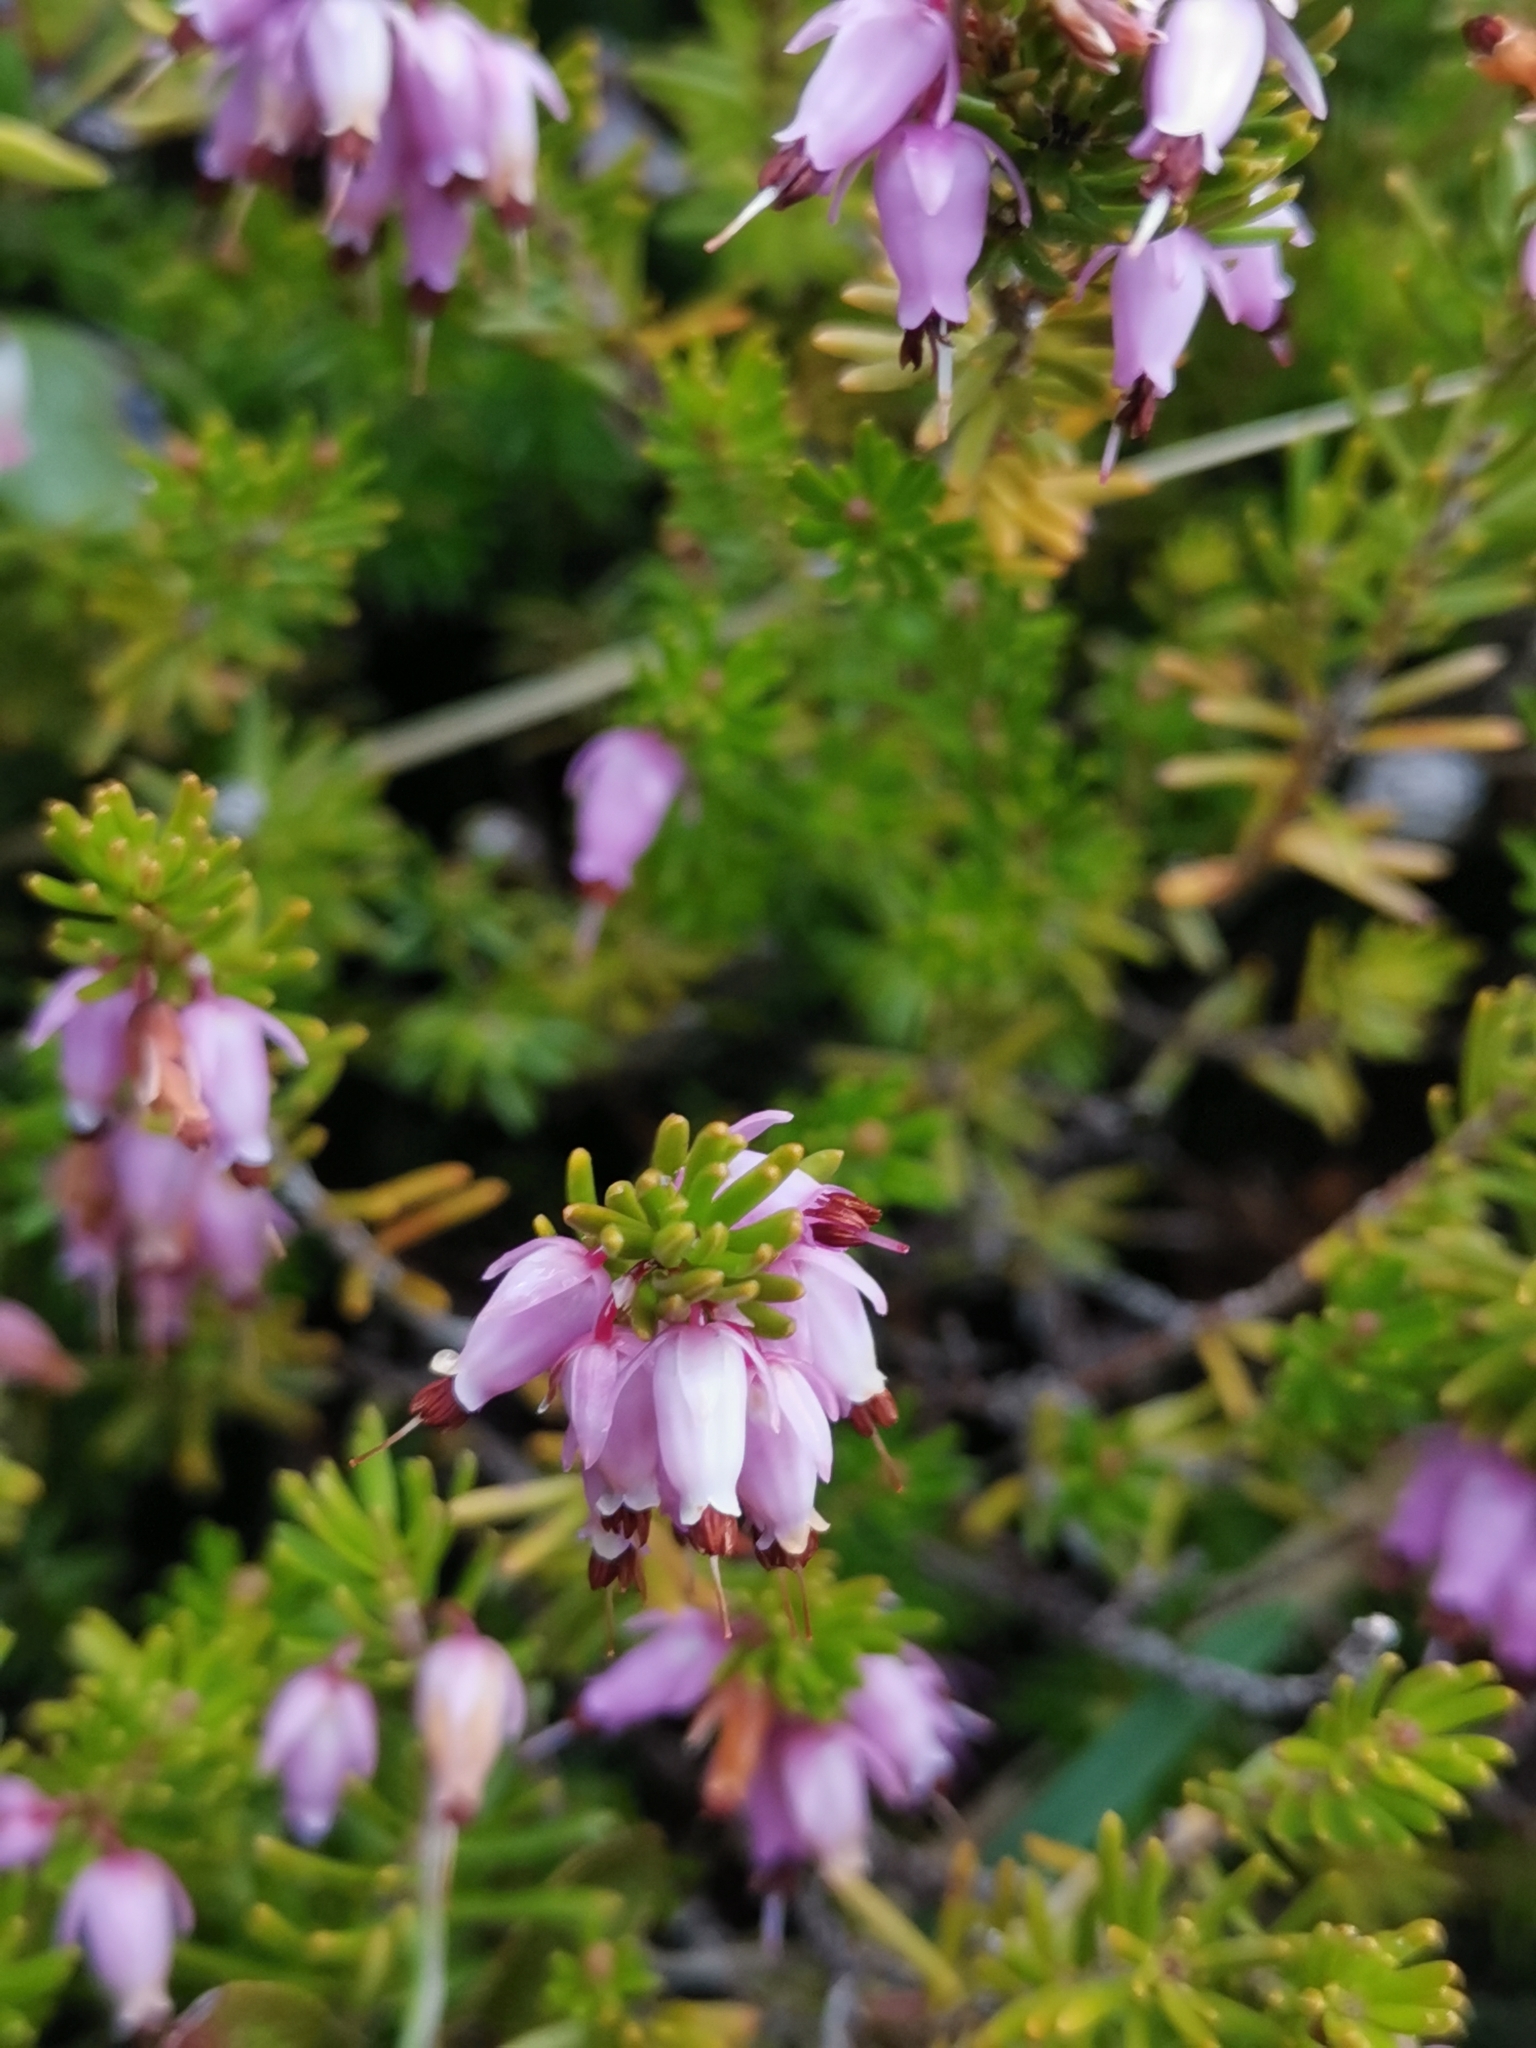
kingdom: Plantae
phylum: Tracheophyta
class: Magnoliopsida
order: Ericales
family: Ericaceae
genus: Erica
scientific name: Erica carnea
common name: Winter heath
